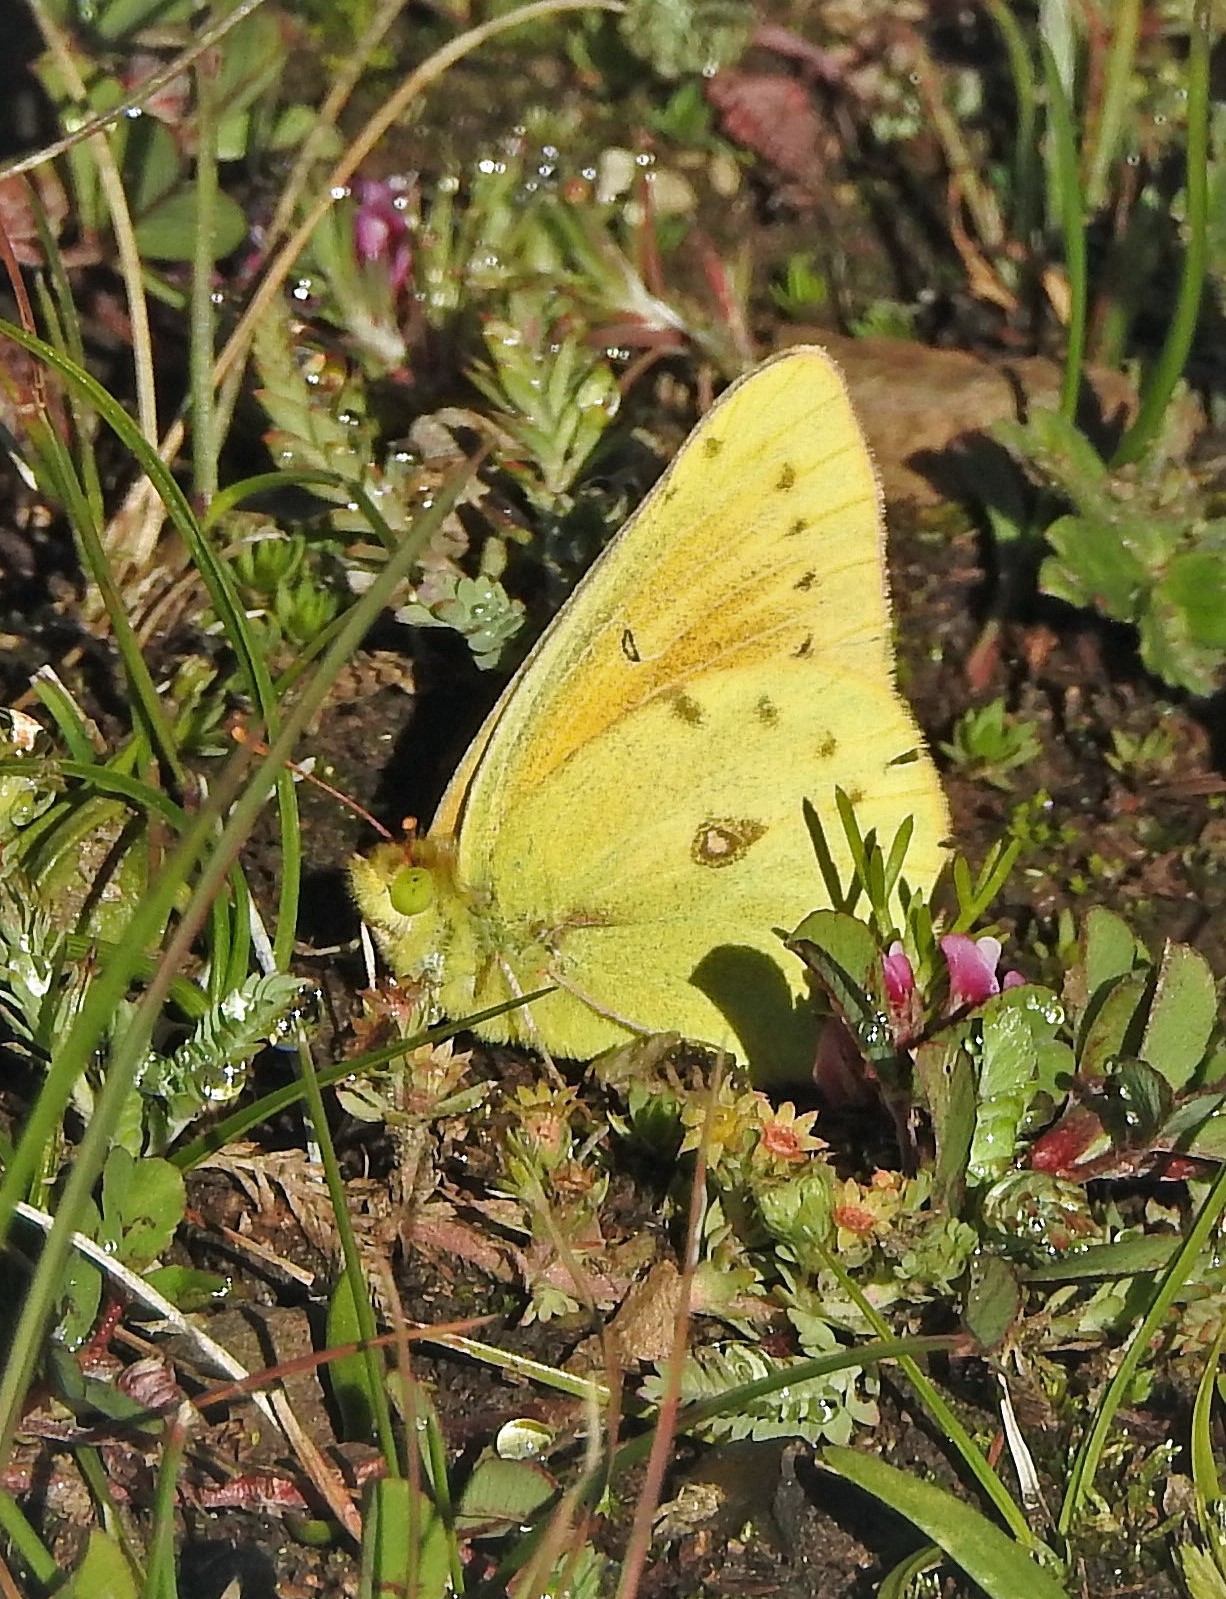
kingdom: Animalia
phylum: Arthropoda
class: Insecta
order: Lepidoptera
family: Pieridae
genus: Colias
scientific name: Colias lesbia
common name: Lesbia clouded yellow
